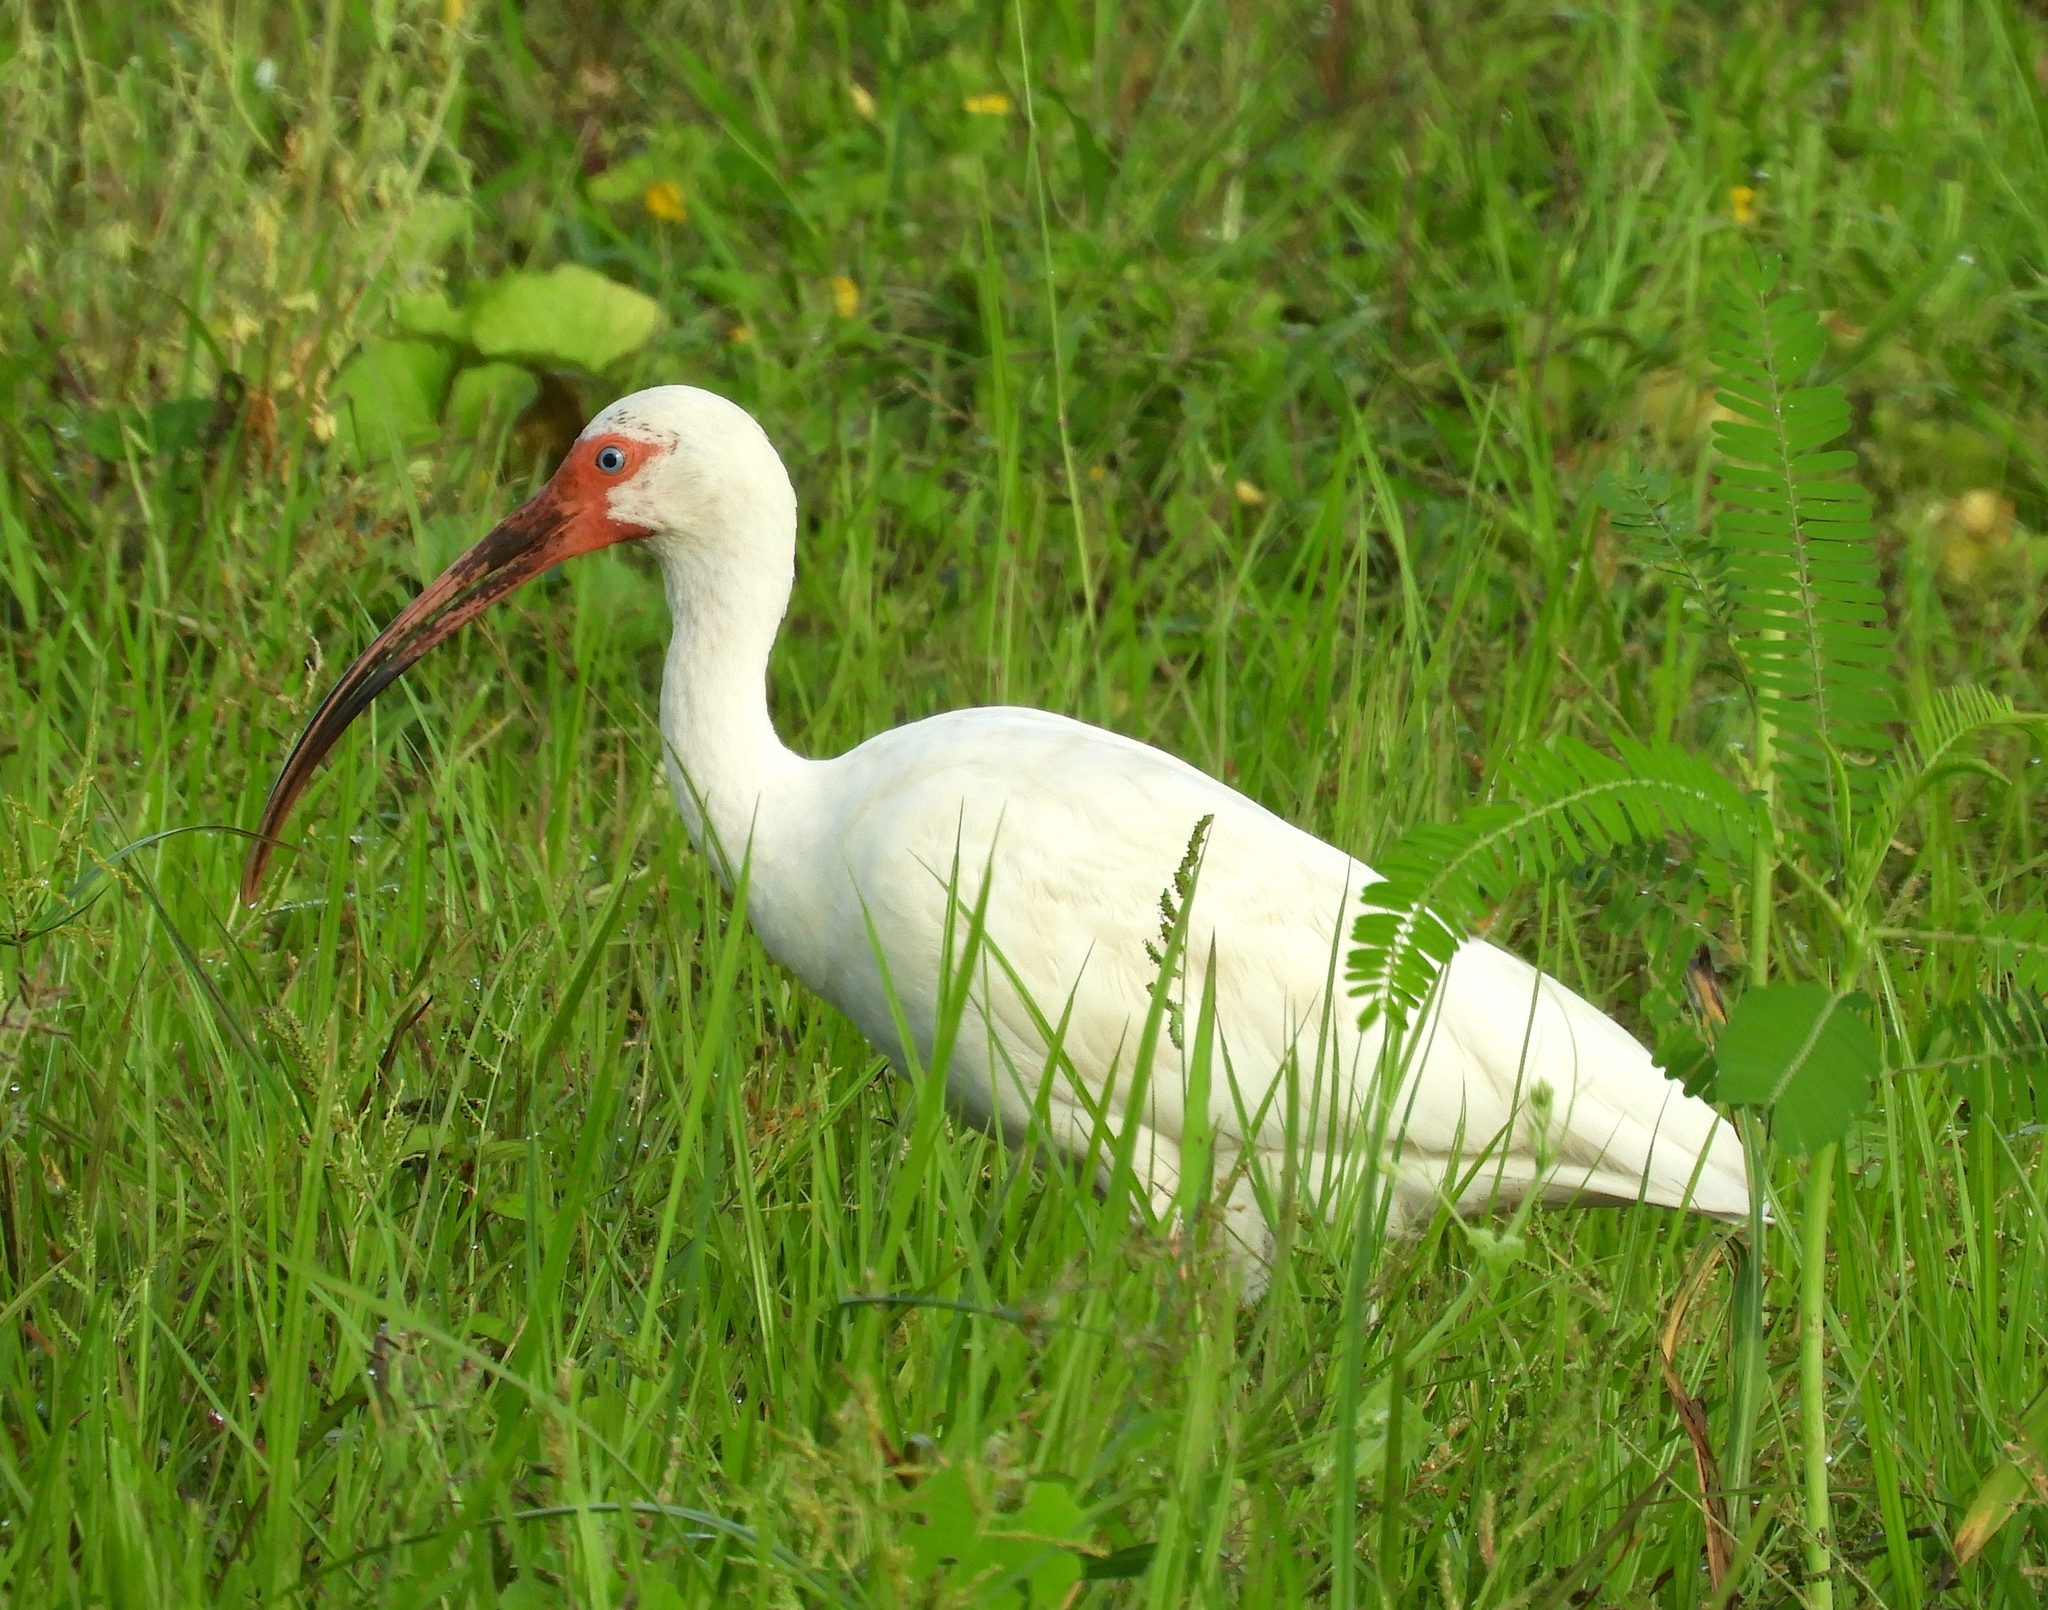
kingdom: Animalia
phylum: Chordata
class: Aves
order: Pelecaniformes
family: Threskiornithidae
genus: Eudocimus
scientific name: Eudocimus albus
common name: White ibis
